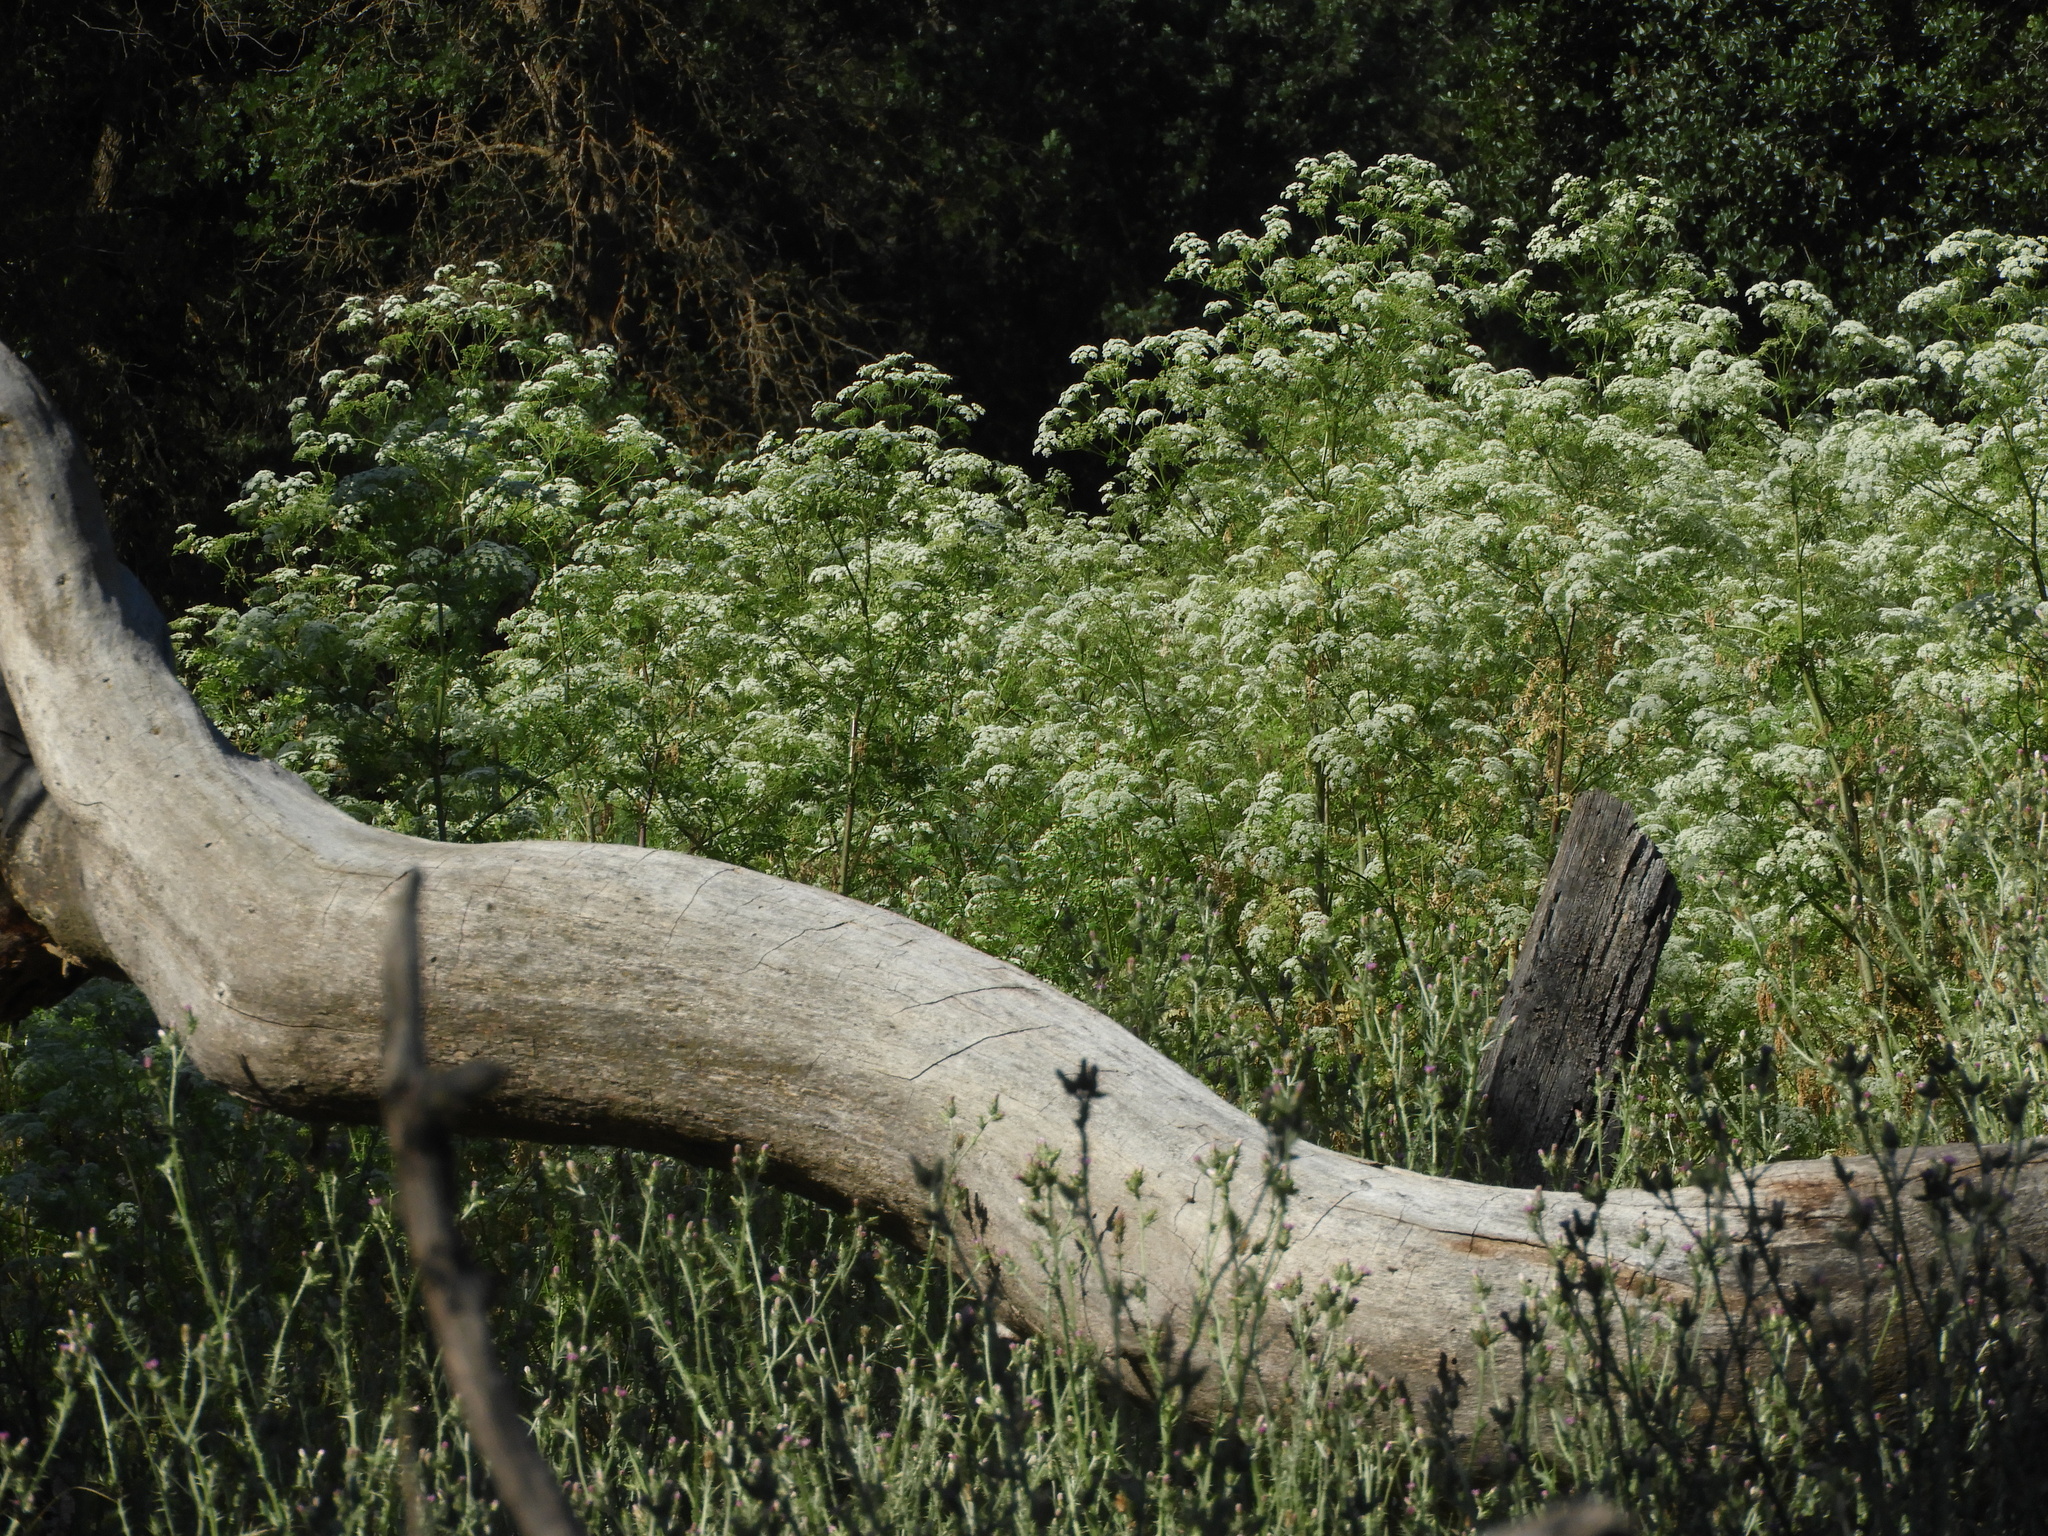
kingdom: Plantae
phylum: Tracheophyta
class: Magnoliopsida
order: Apiales
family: Apiaceae
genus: Conium
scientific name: Conium maculatum
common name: Hemlock
